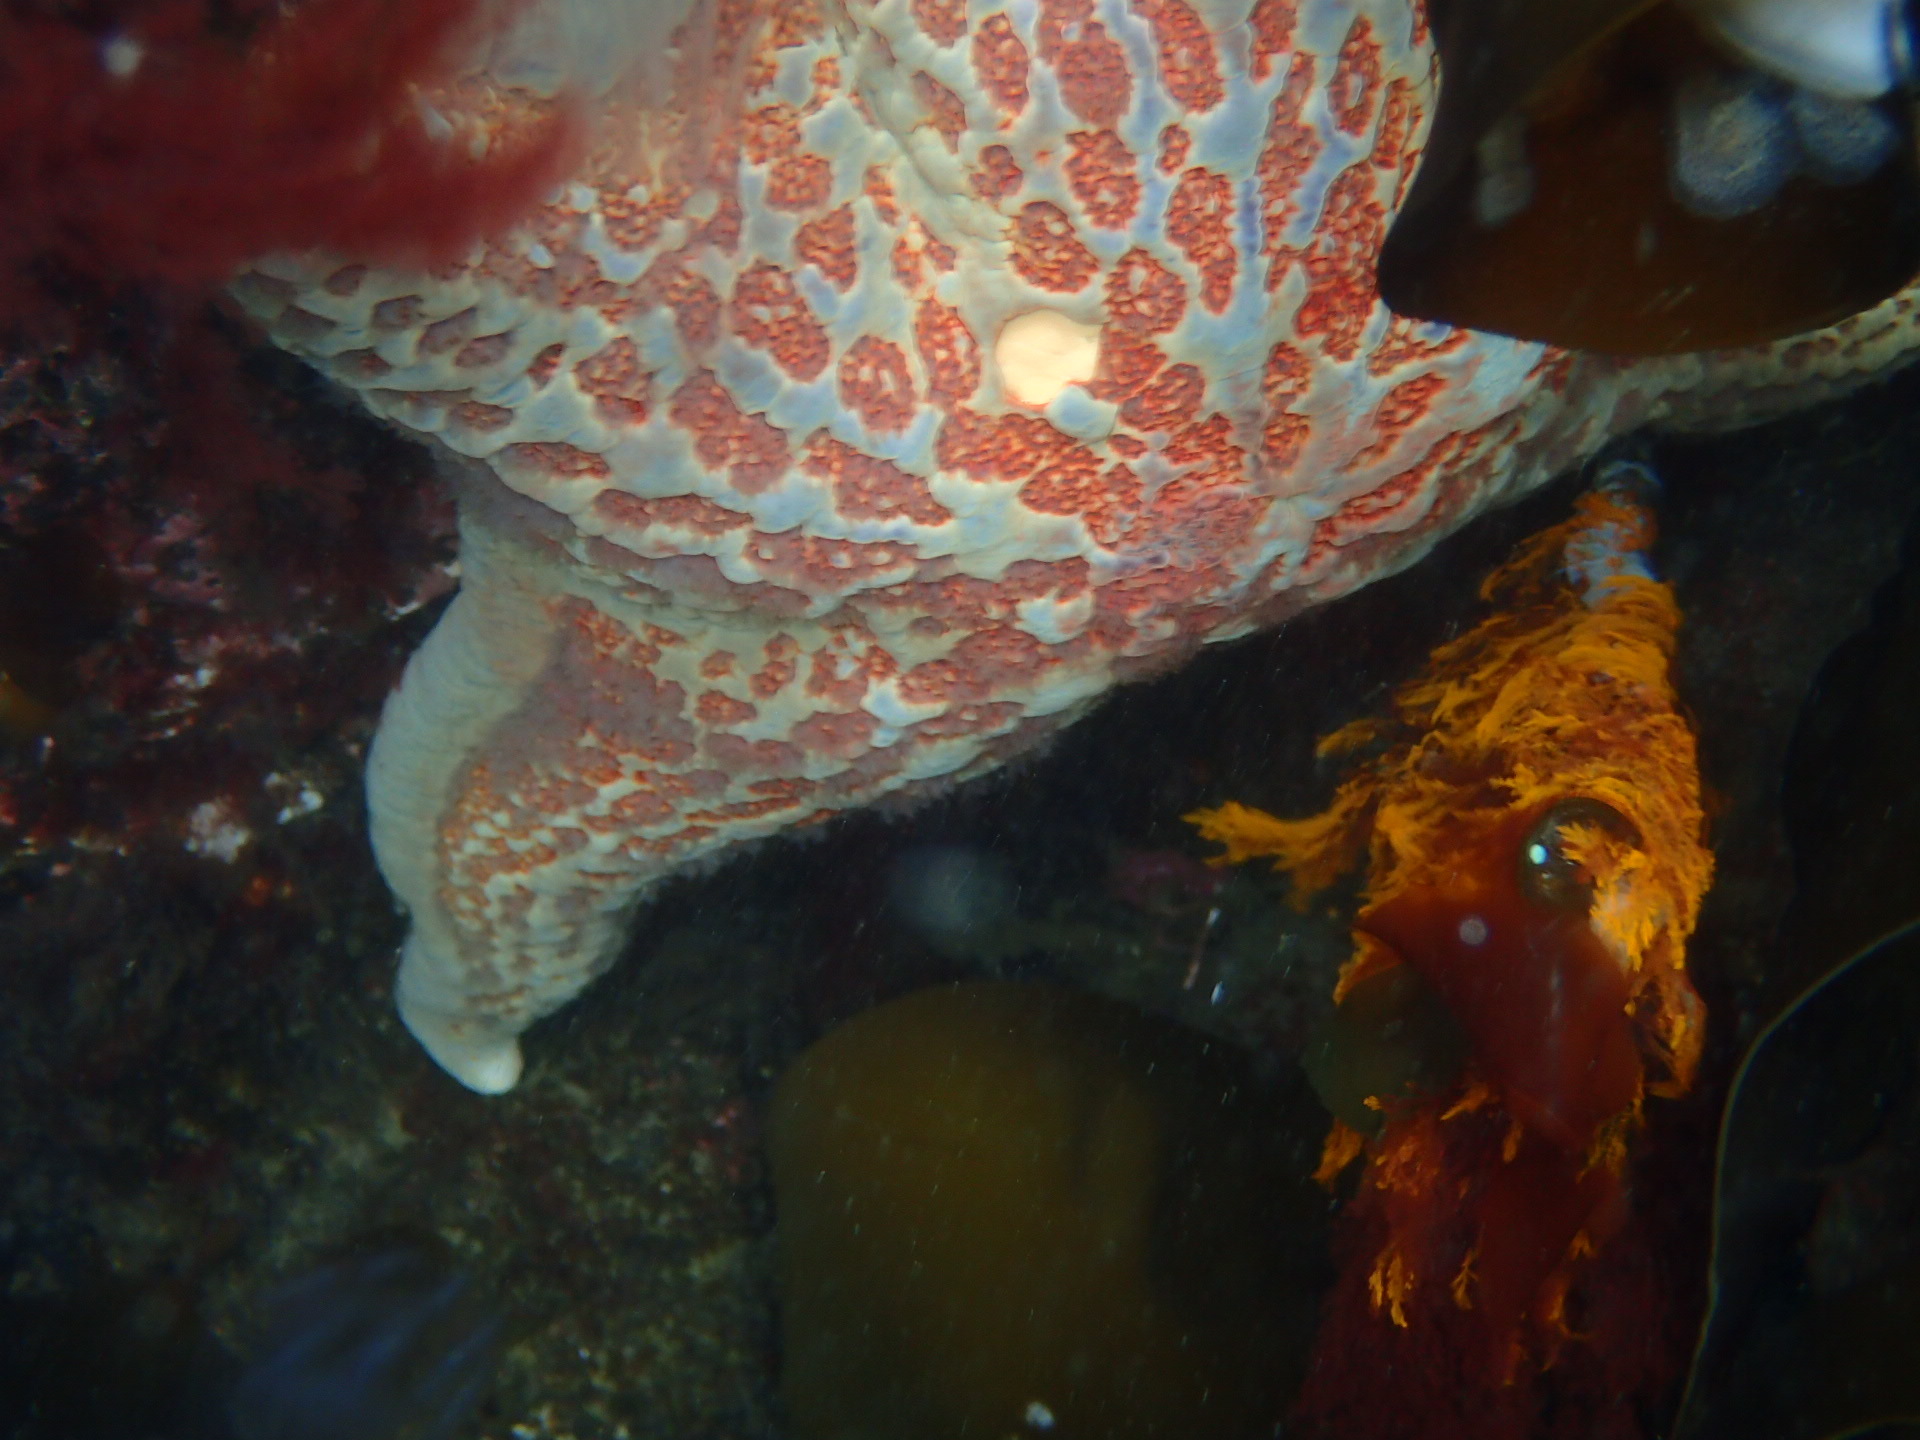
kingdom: Animalia
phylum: Echinodermata
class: Asteroidea
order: Valvatida
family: Asteropseidae
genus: Dermasterias
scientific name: Dermasterias imbricata
